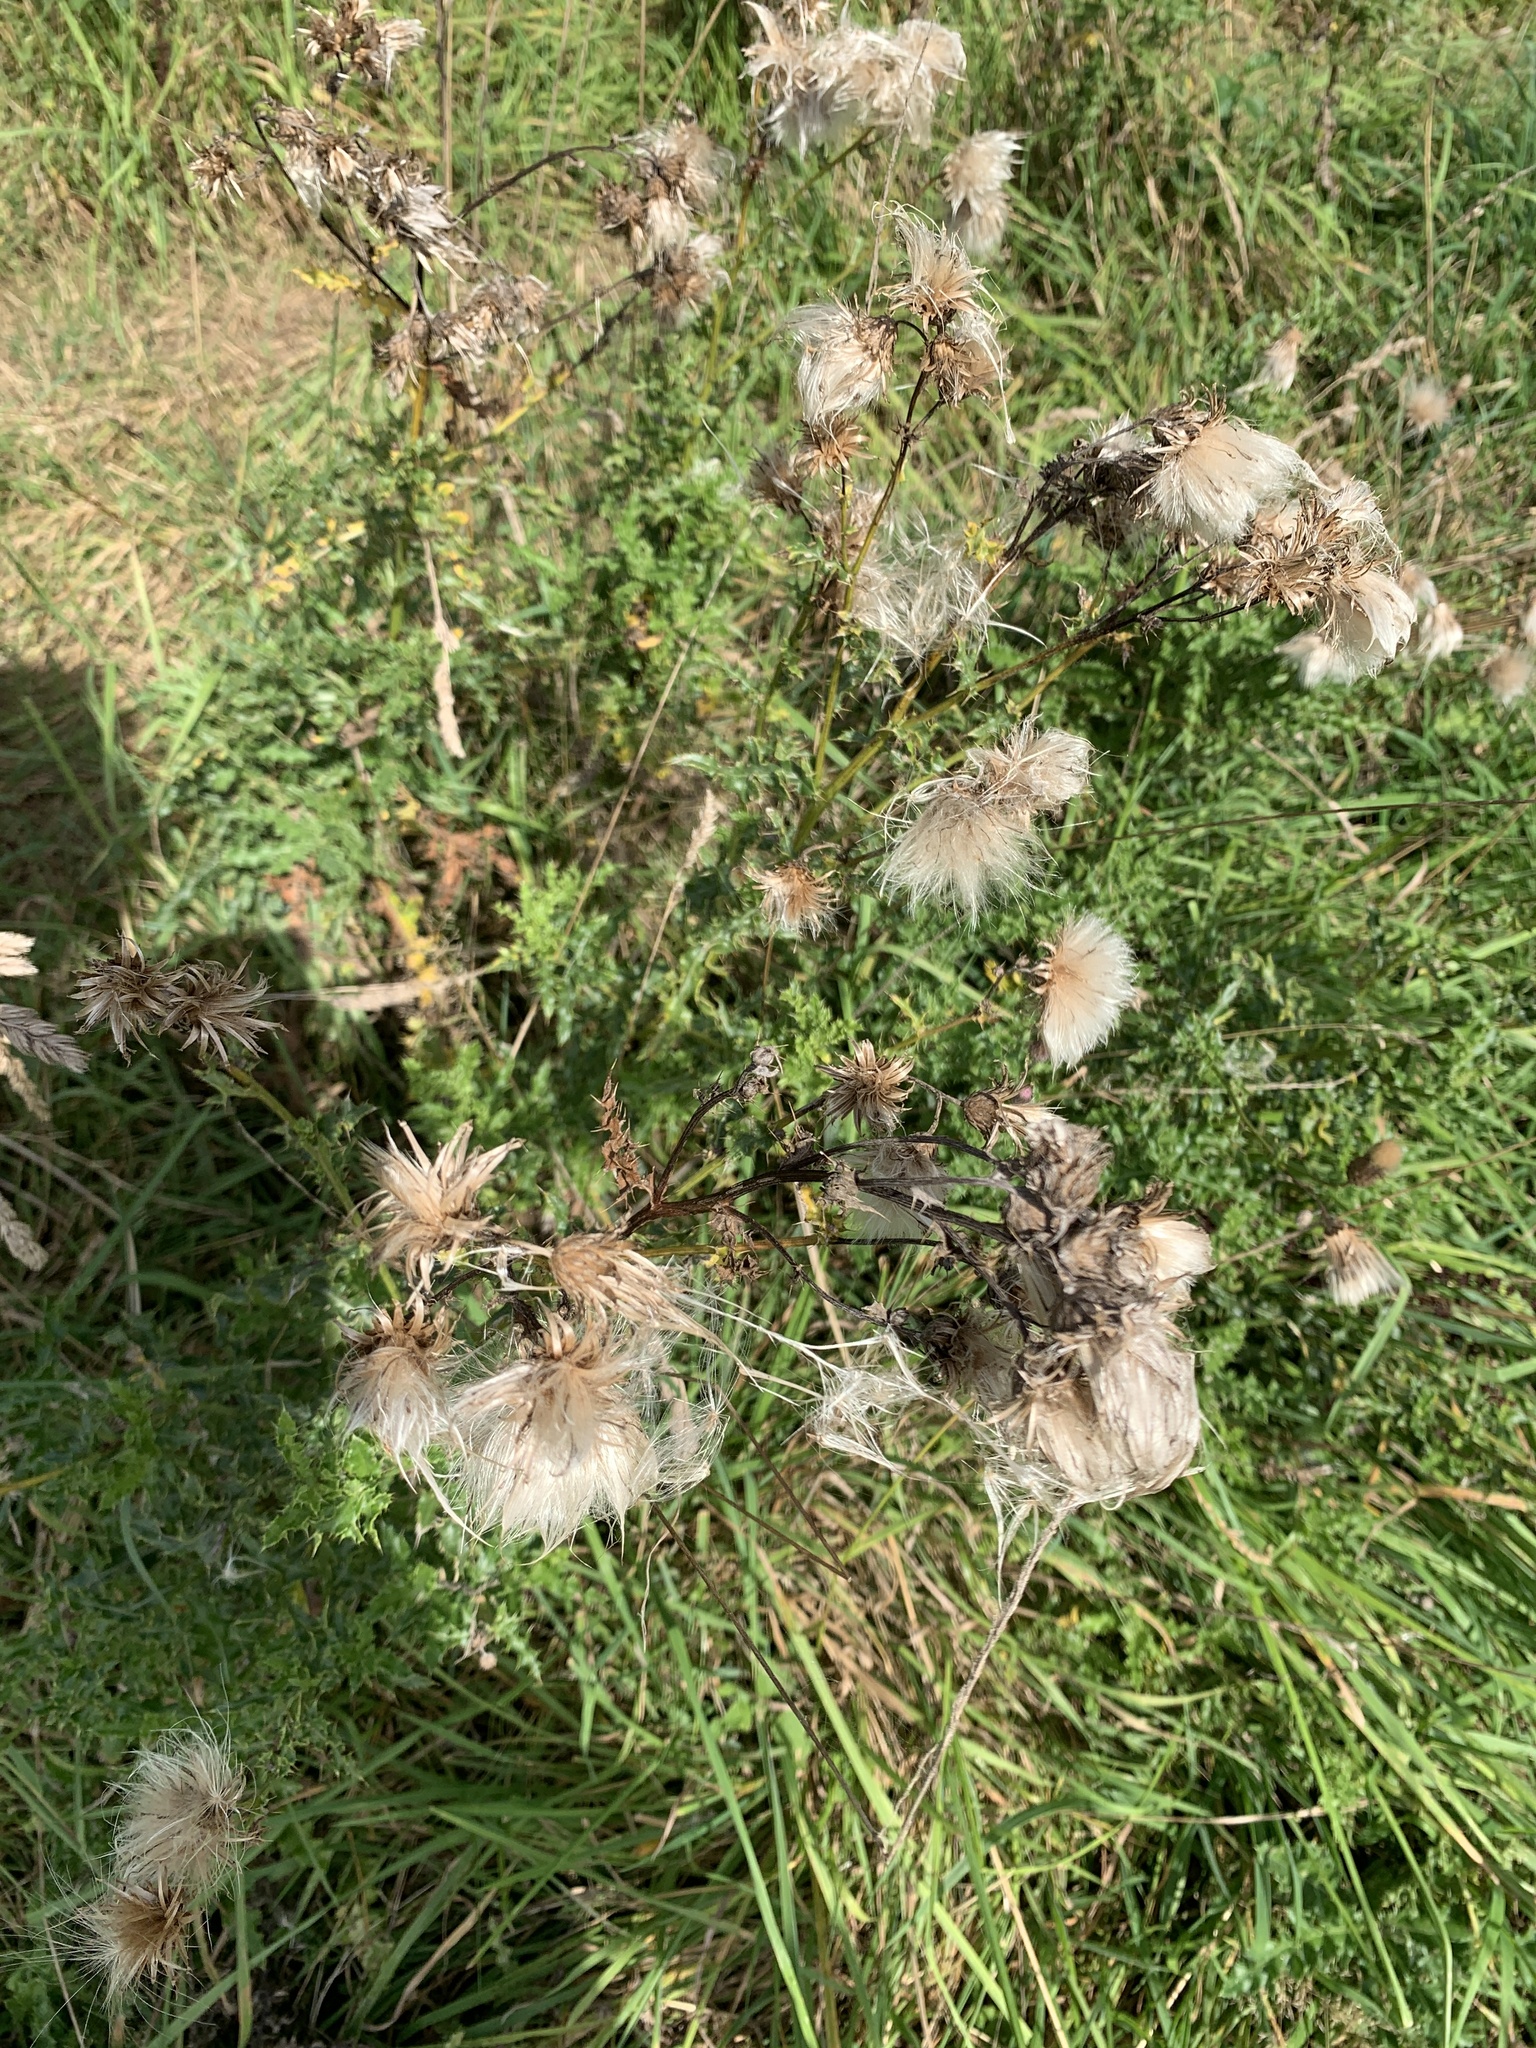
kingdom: Plantae
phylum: Tracheophyta
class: Magnoliopsida
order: Asterales
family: Asteraceae
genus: Cirsium
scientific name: Cirsium arvense
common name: Creeping thistle
